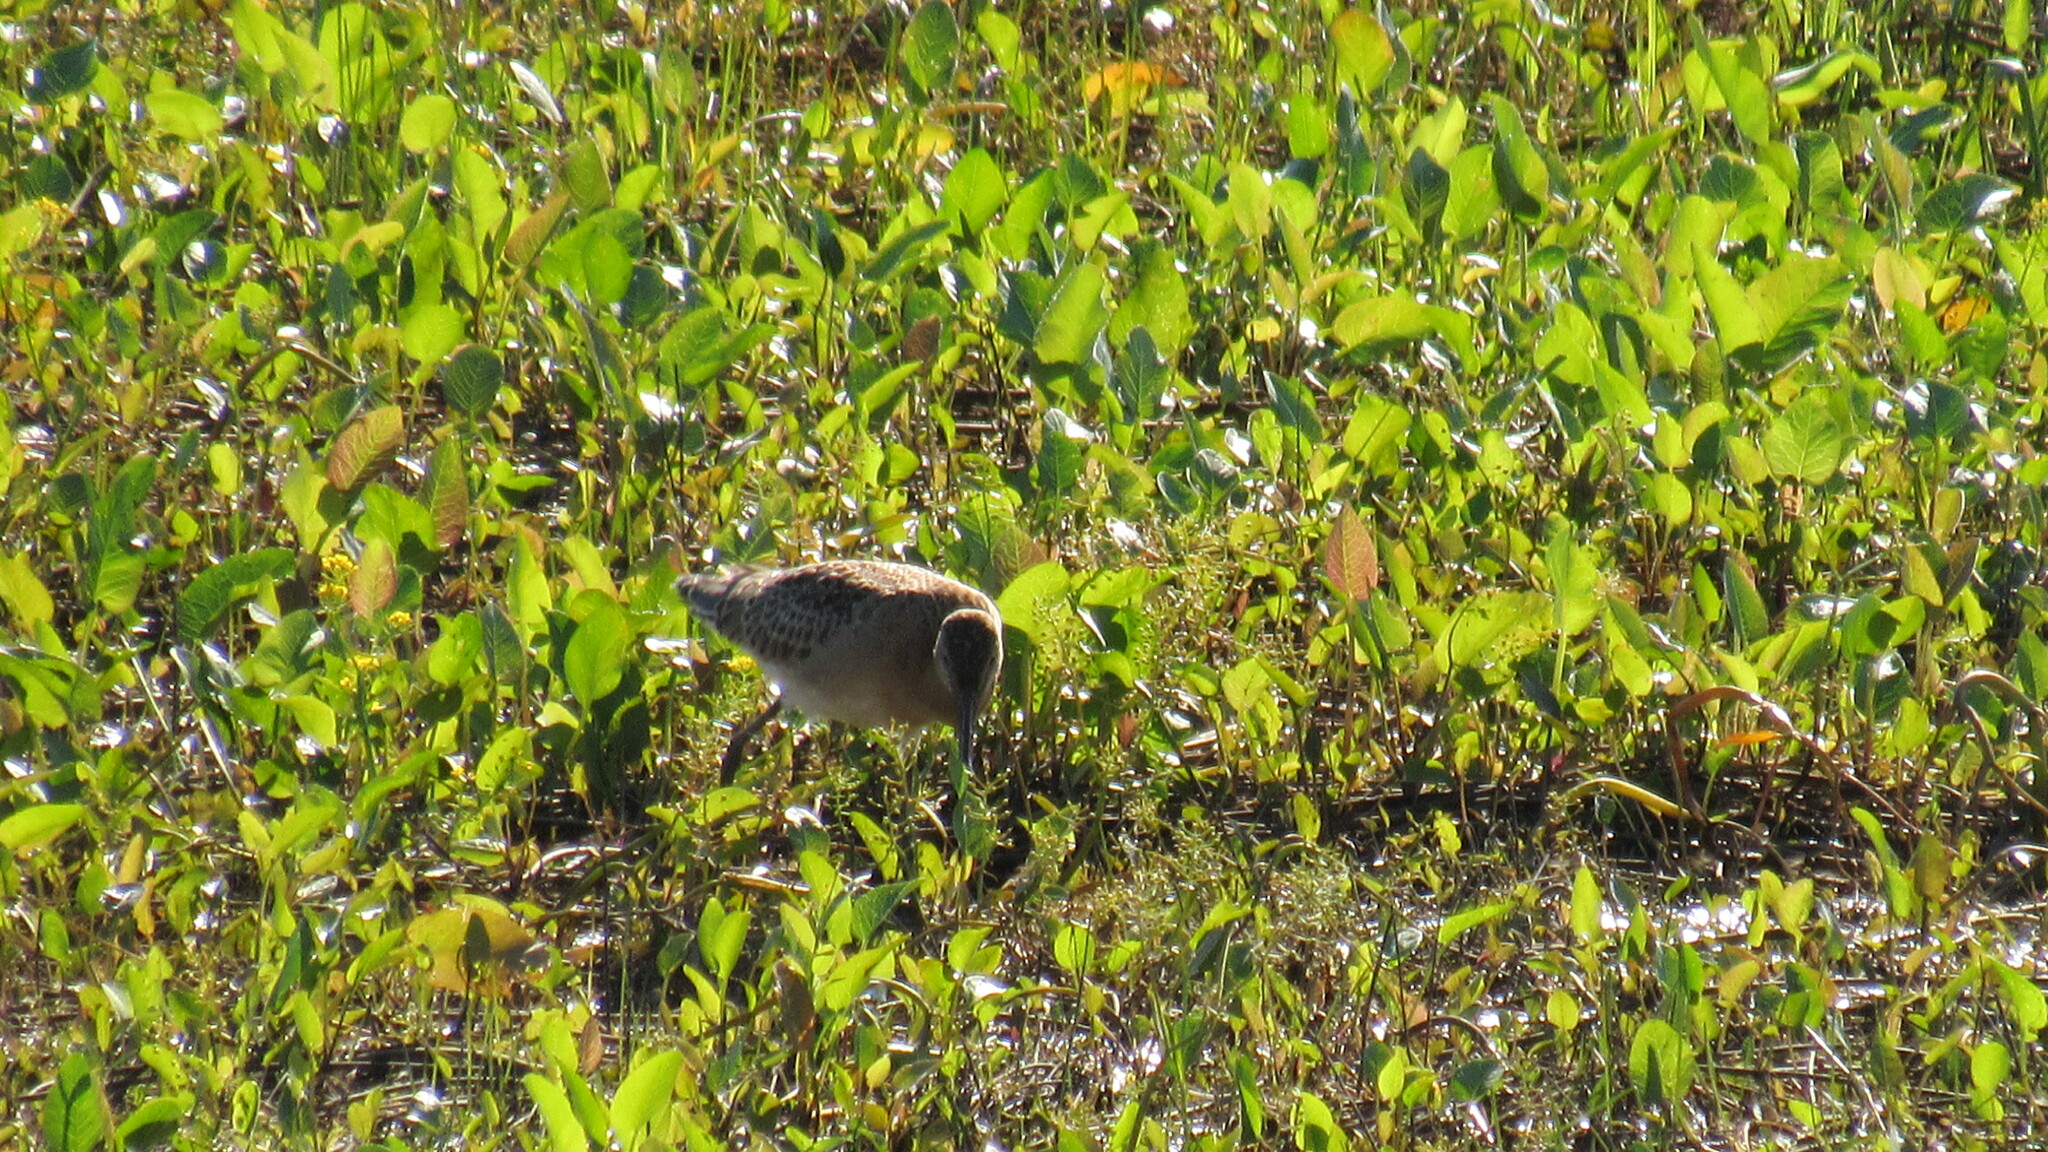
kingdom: Animalia
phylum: Chordata
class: Aves
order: Charadriiformes
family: Scolopacidae
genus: Limosa
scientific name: Limosa limosa
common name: Black-tailed godwit
